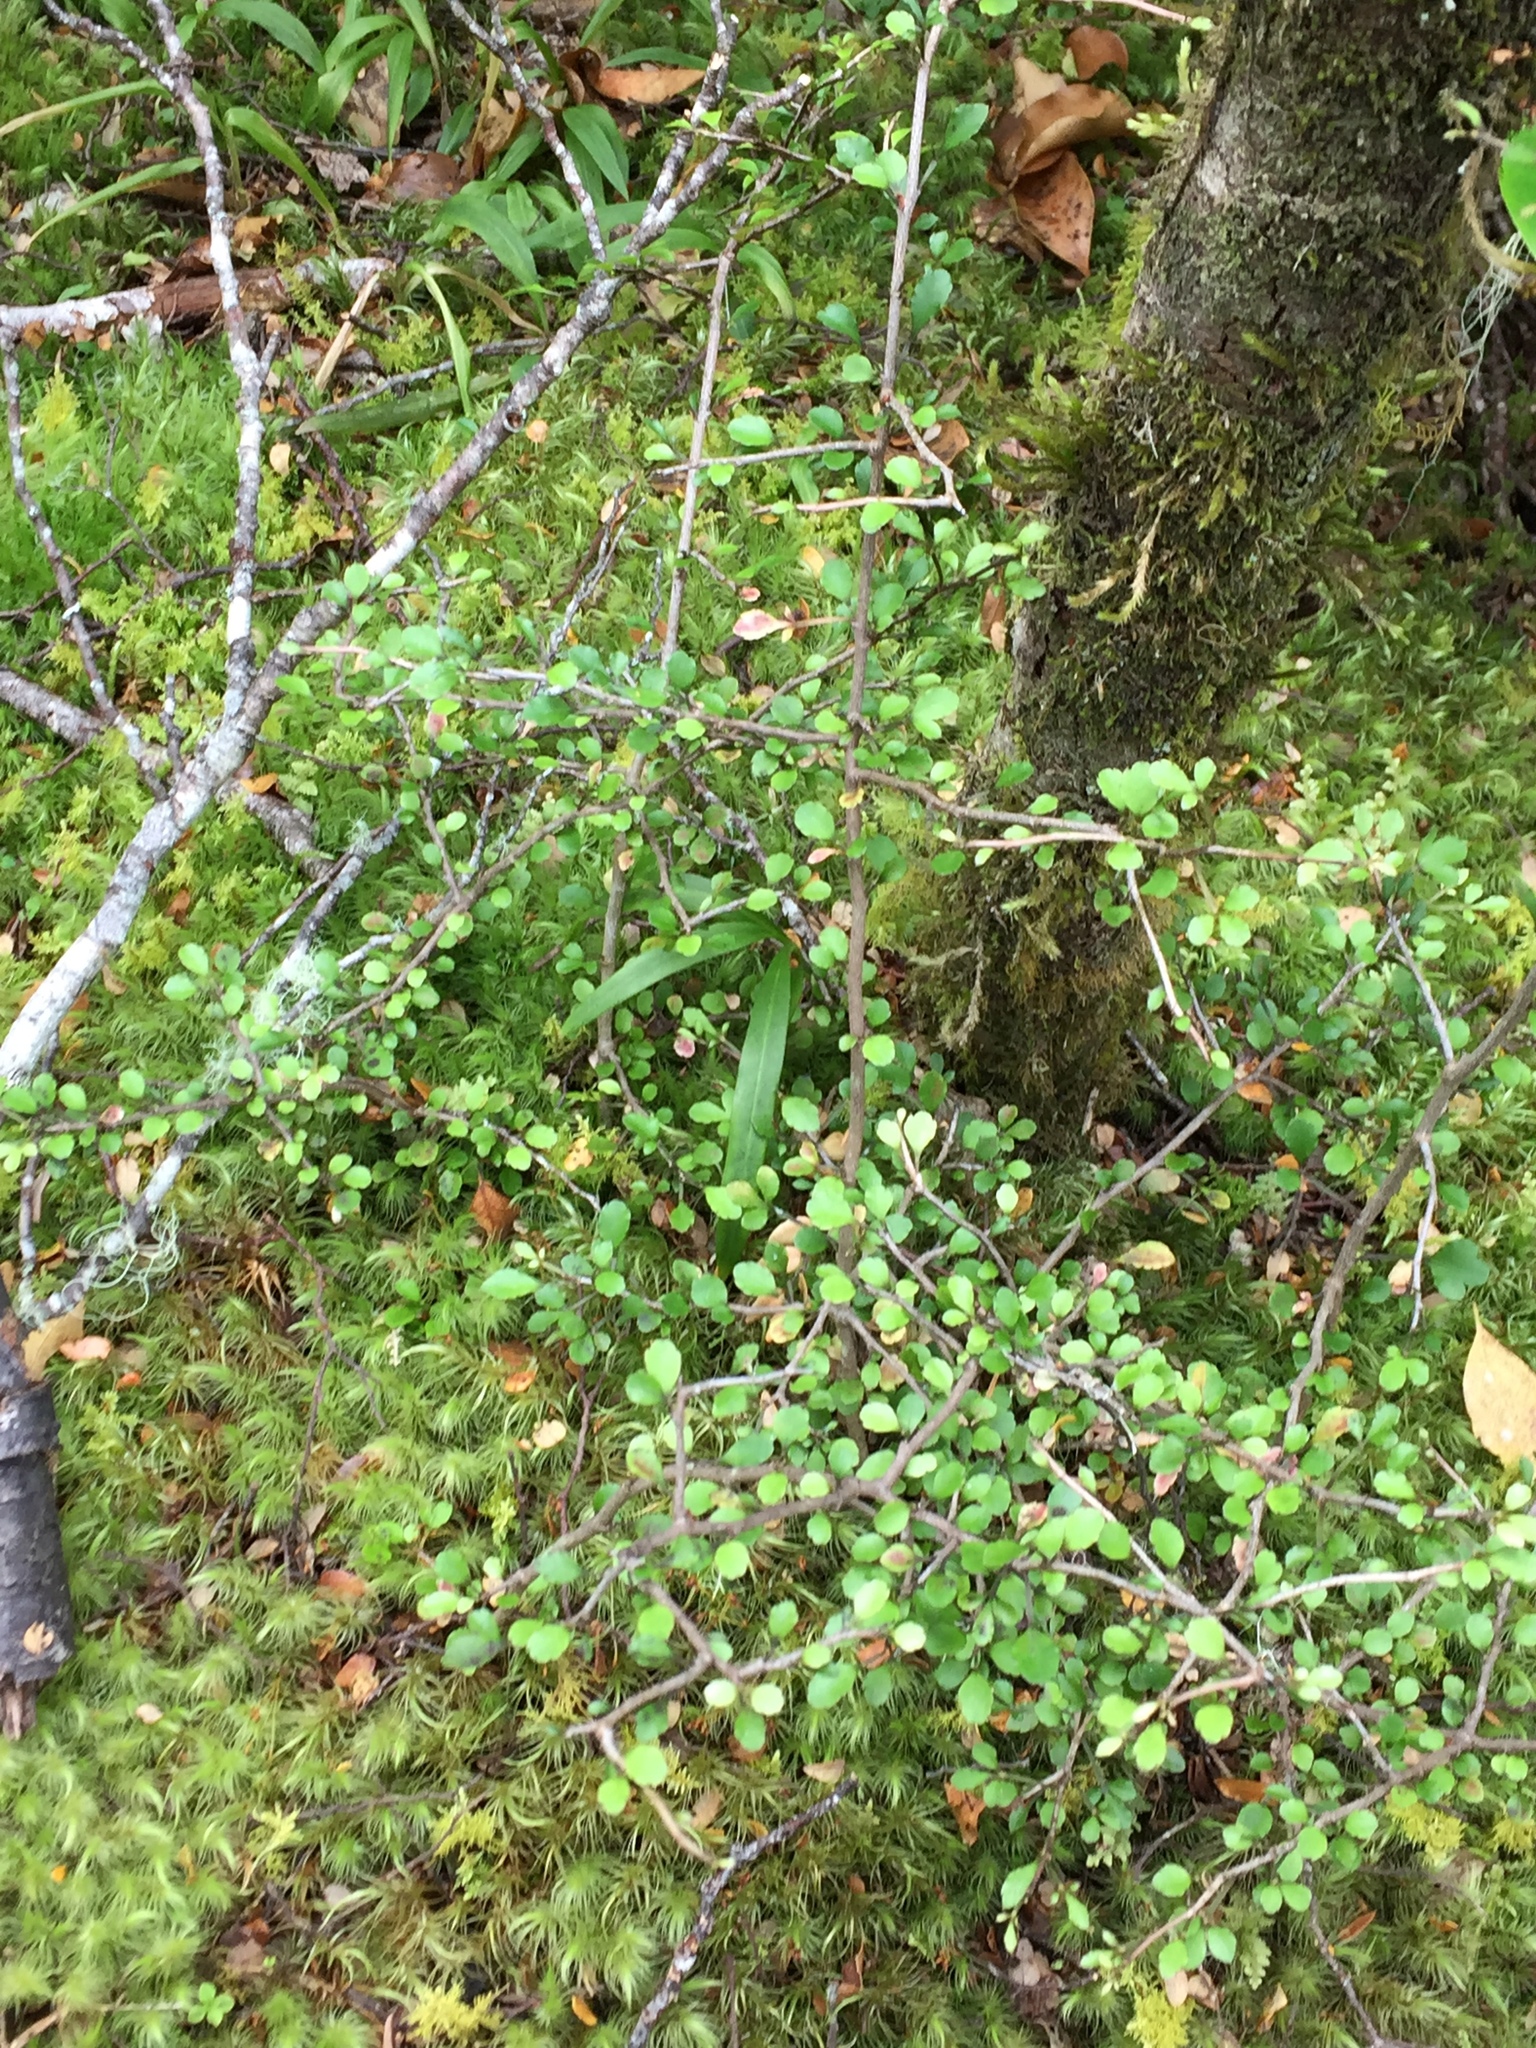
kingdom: Plantae
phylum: Tracheophyta
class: Magnoliopsida
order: Apiales
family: Araliaceae
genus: Raukaua
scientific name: Raukaua anomalus
